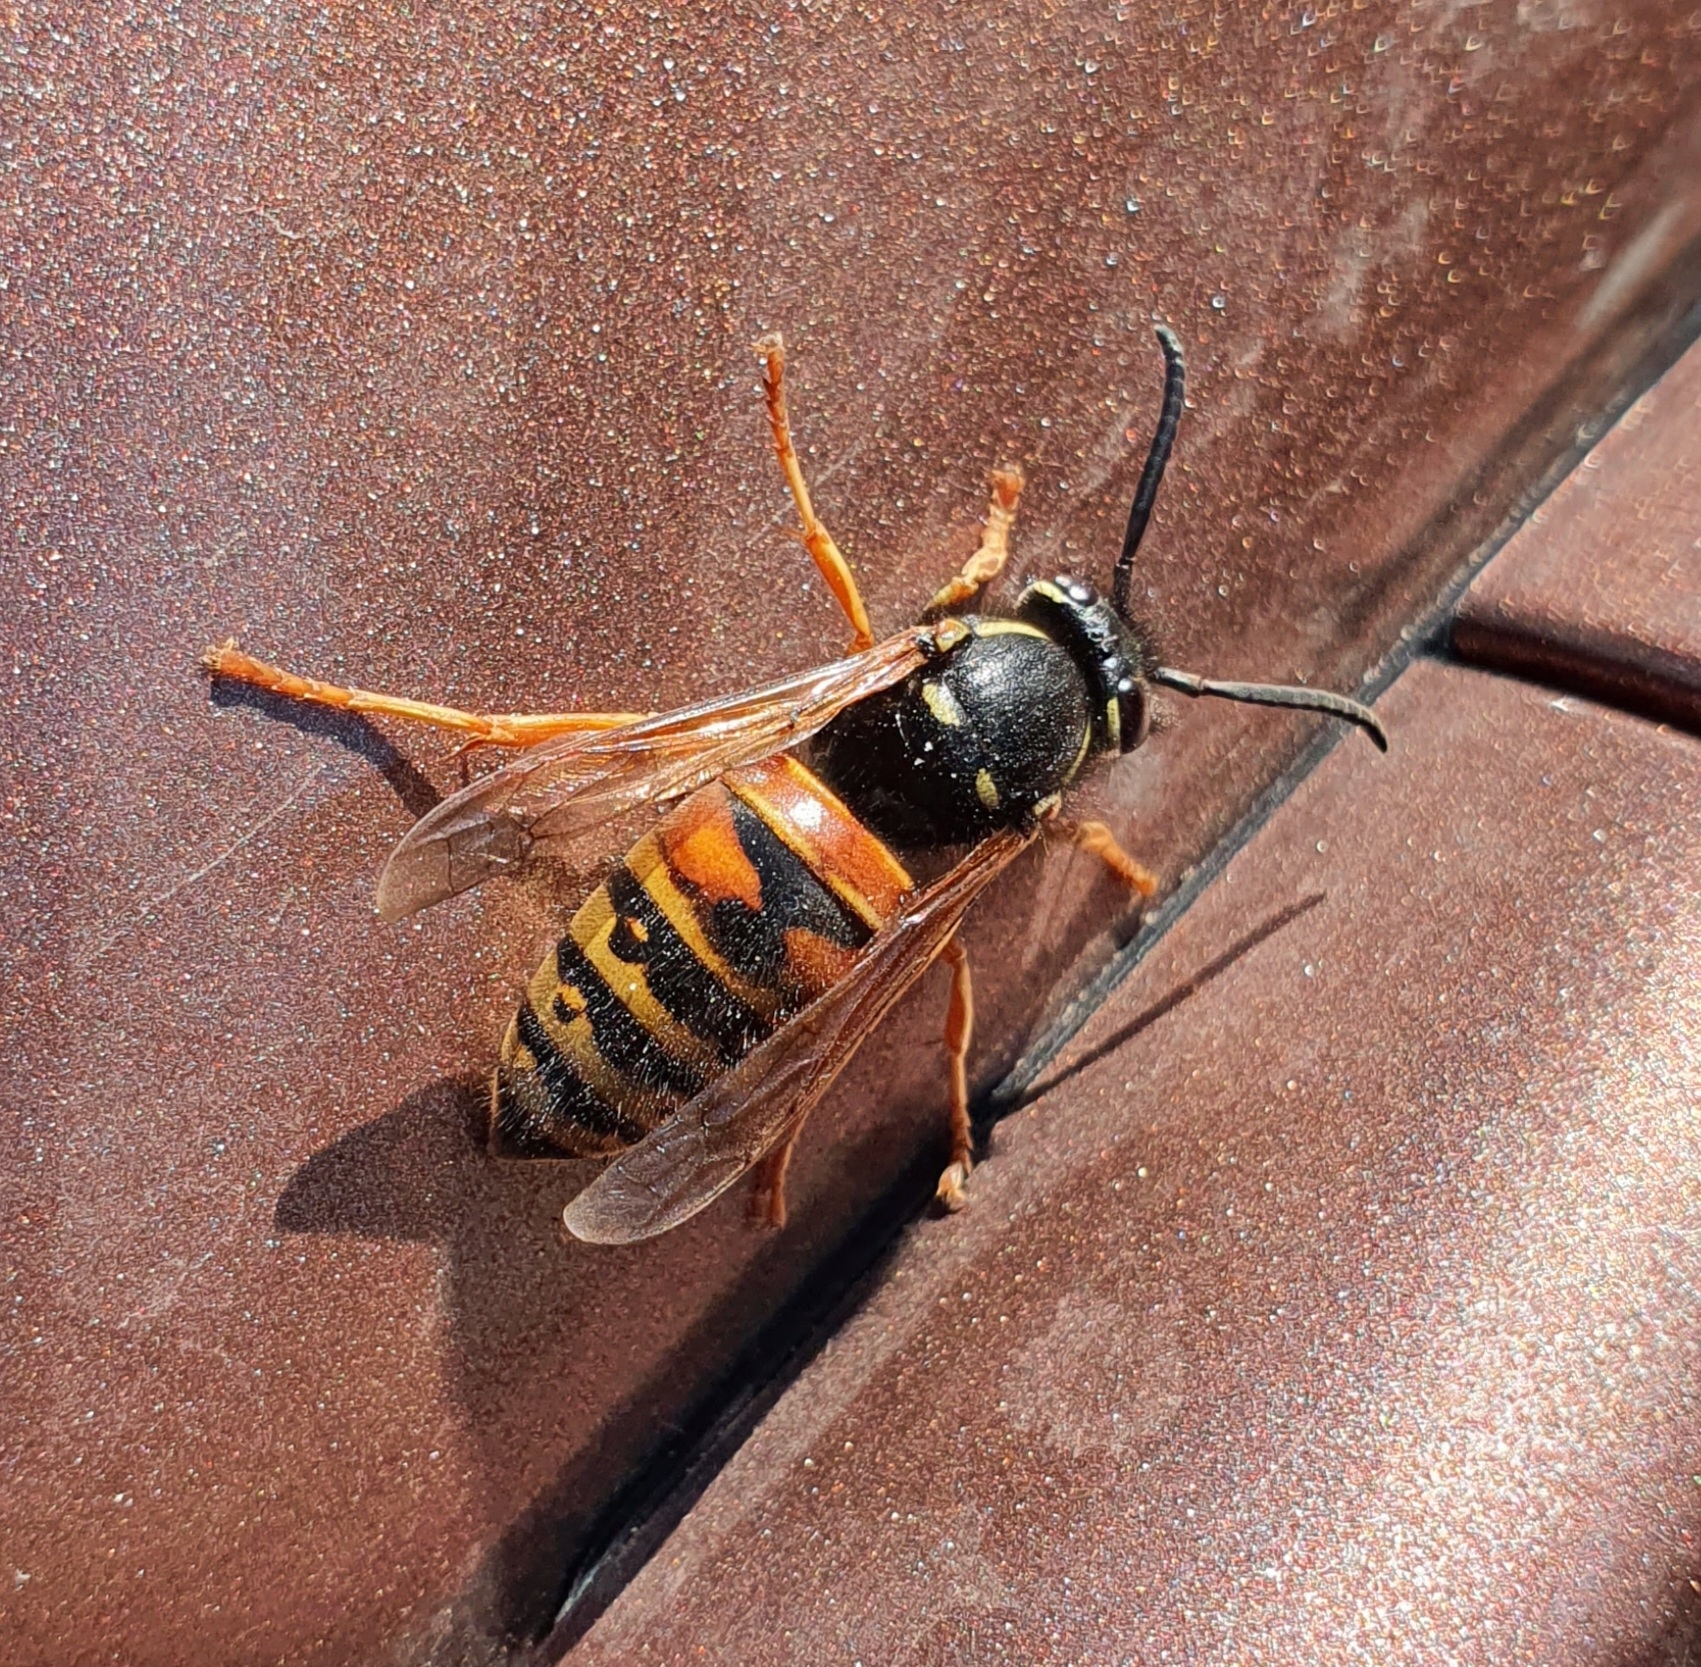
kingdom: Animalia
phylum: Arthropoda
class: Insecta
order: Hymenoptera
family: Vespidae
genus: Vespula
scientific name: Vespula rufa
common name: Red wasp
